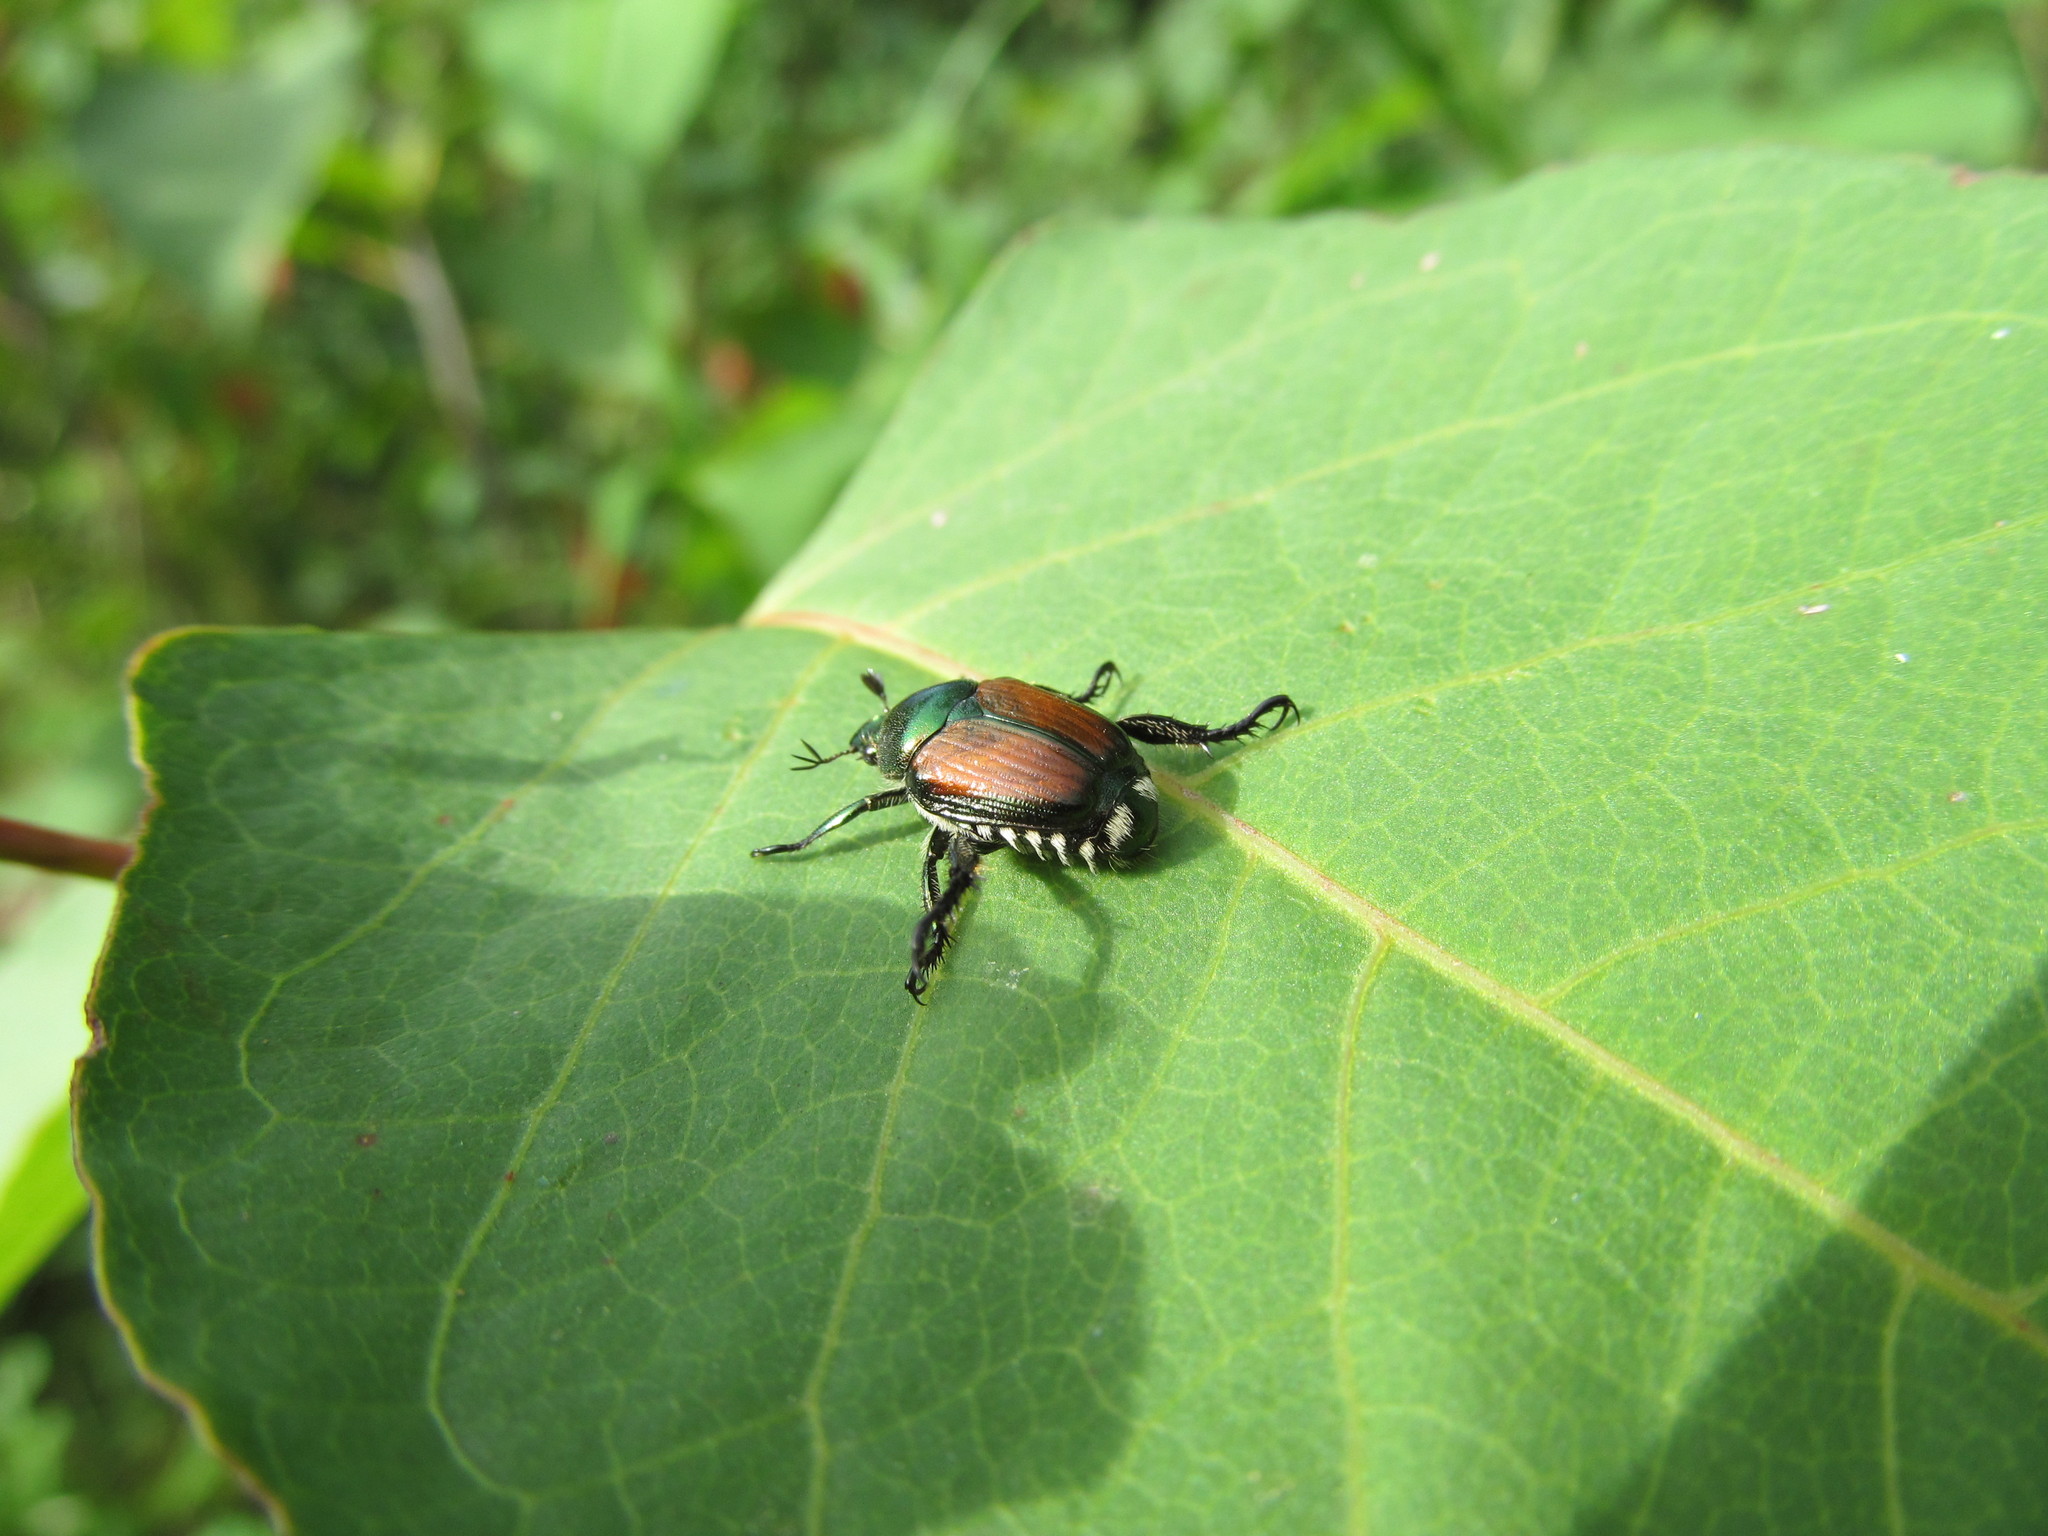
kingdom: Animalia
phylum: Arthropoda
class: Insecta
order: Coleoptera
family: Scarabaeidae
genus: Popillia
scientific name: Popillia japonica
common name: Japanese beetle
